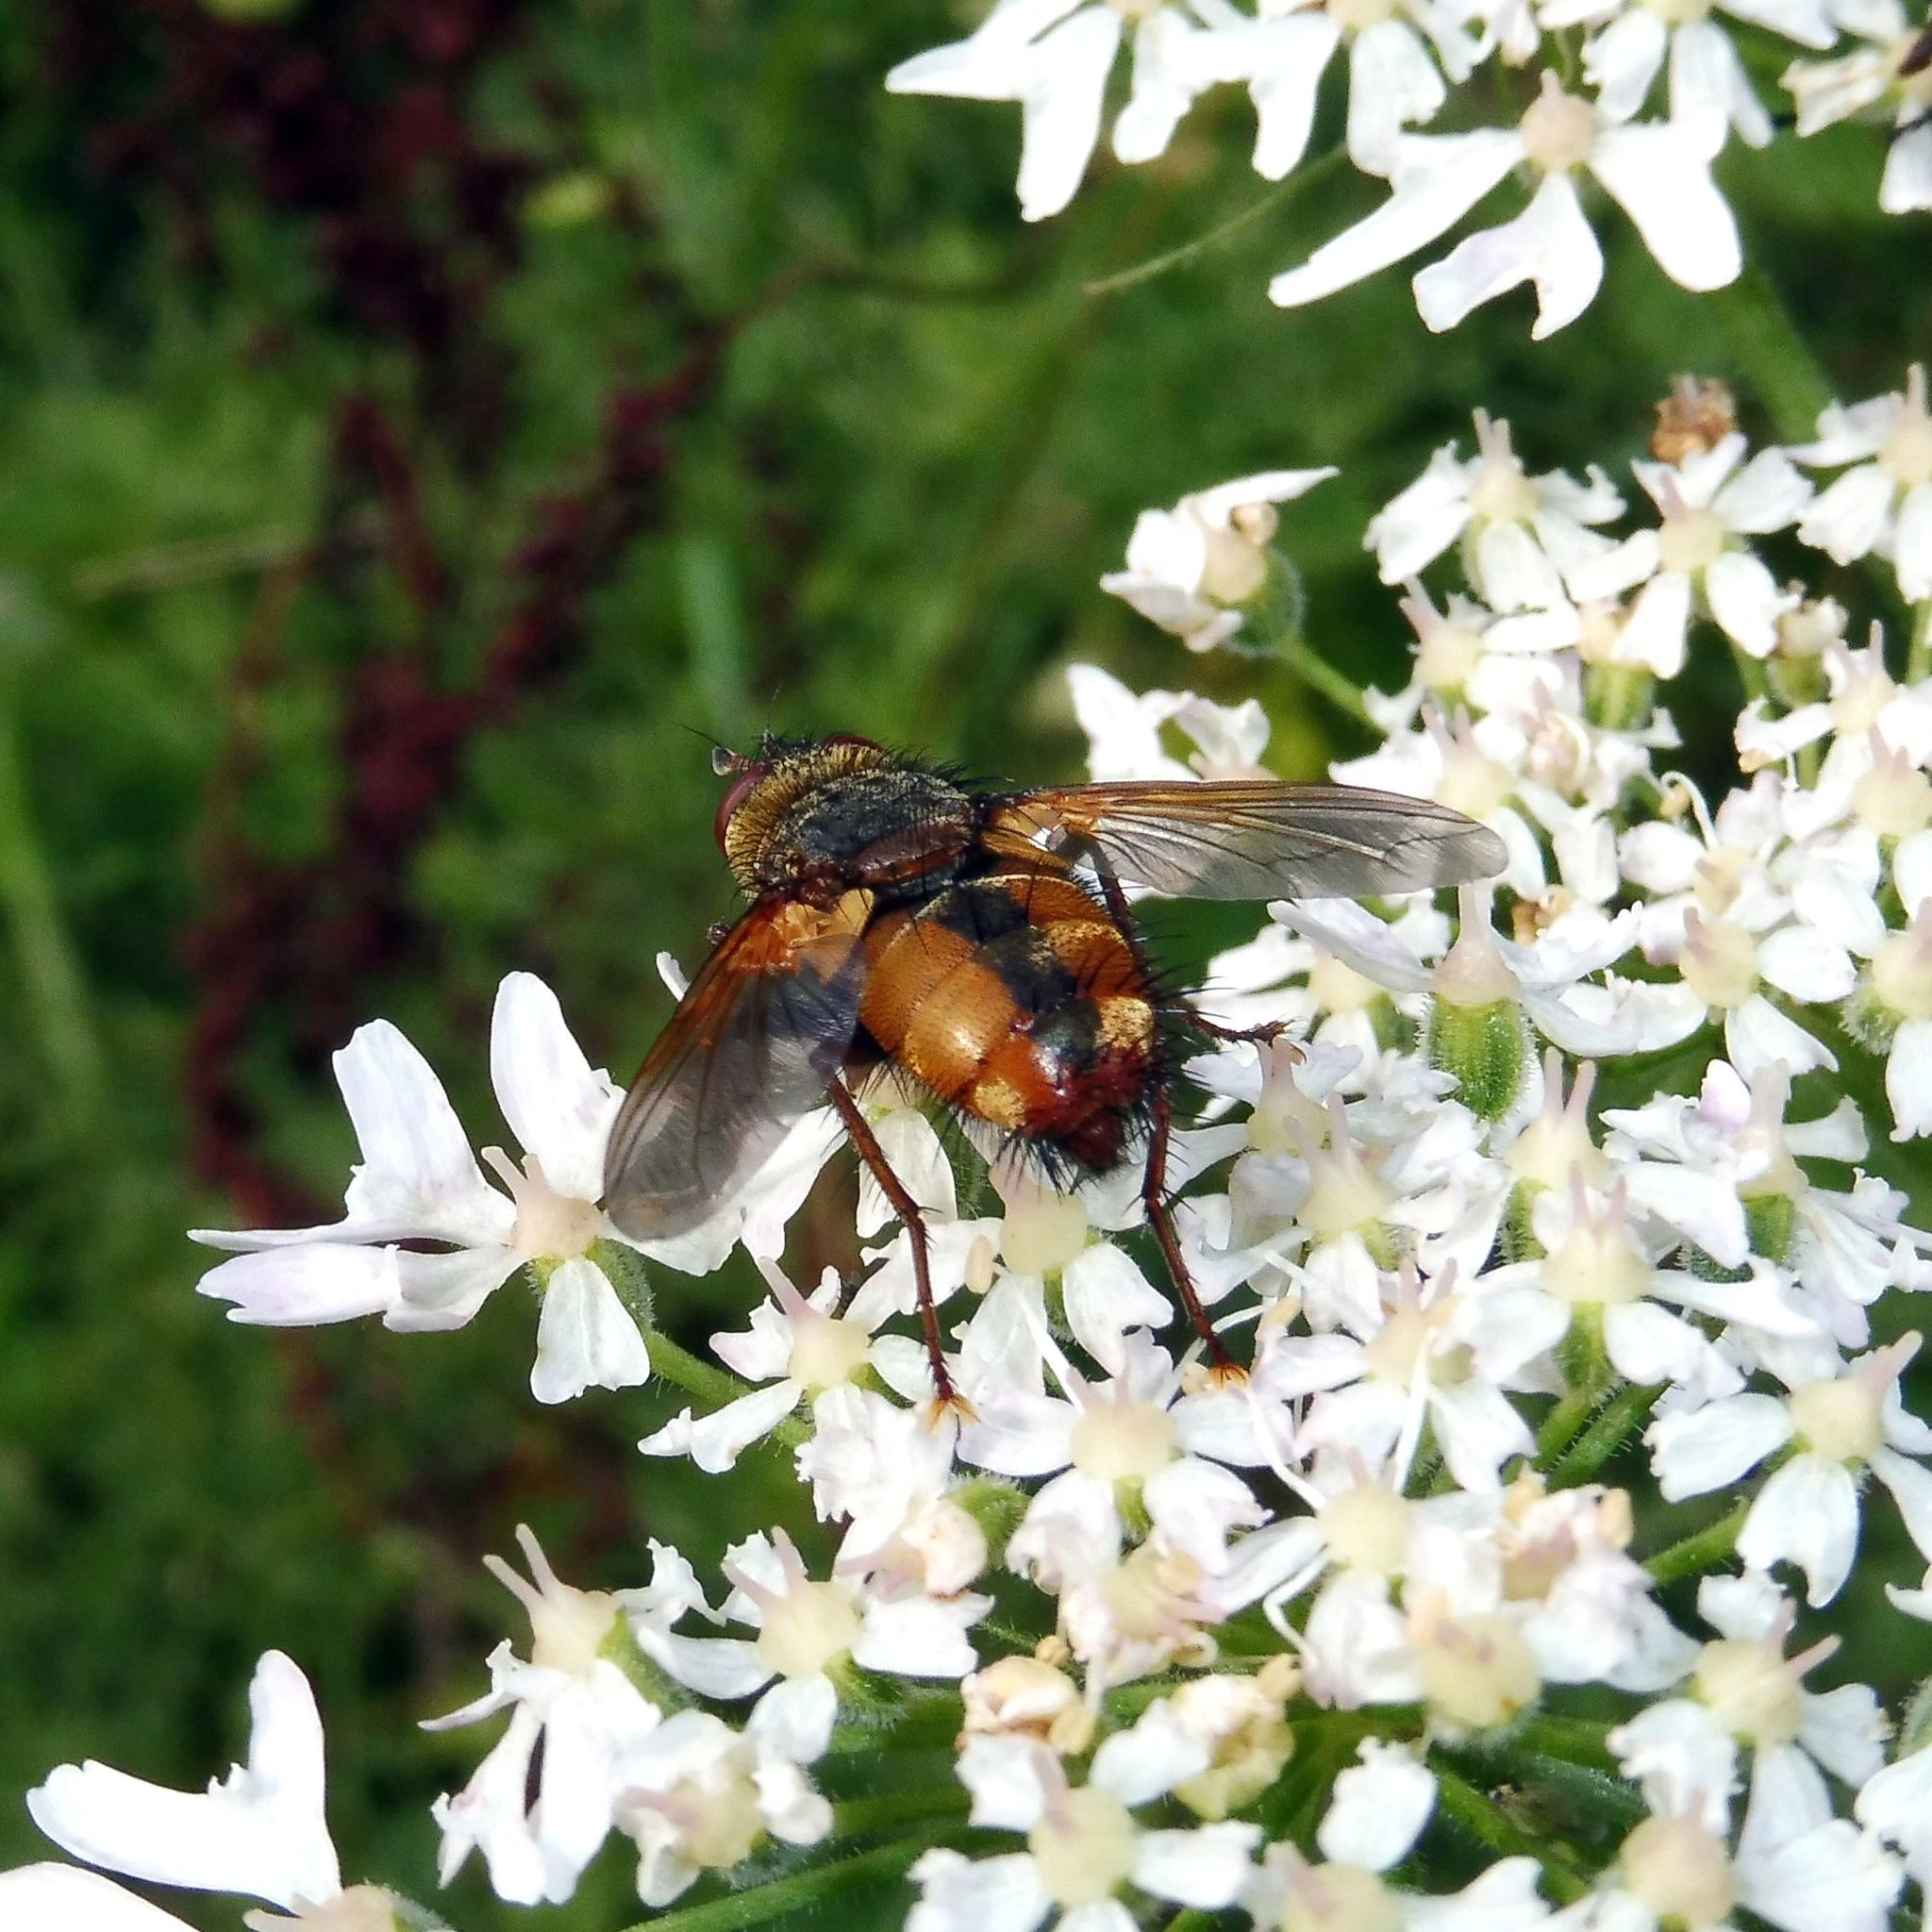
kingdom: Animalia
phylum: Arthropoda
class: Insecta
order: Diptera
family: Tachinidae
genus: Tachina
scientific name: Tachina fera
